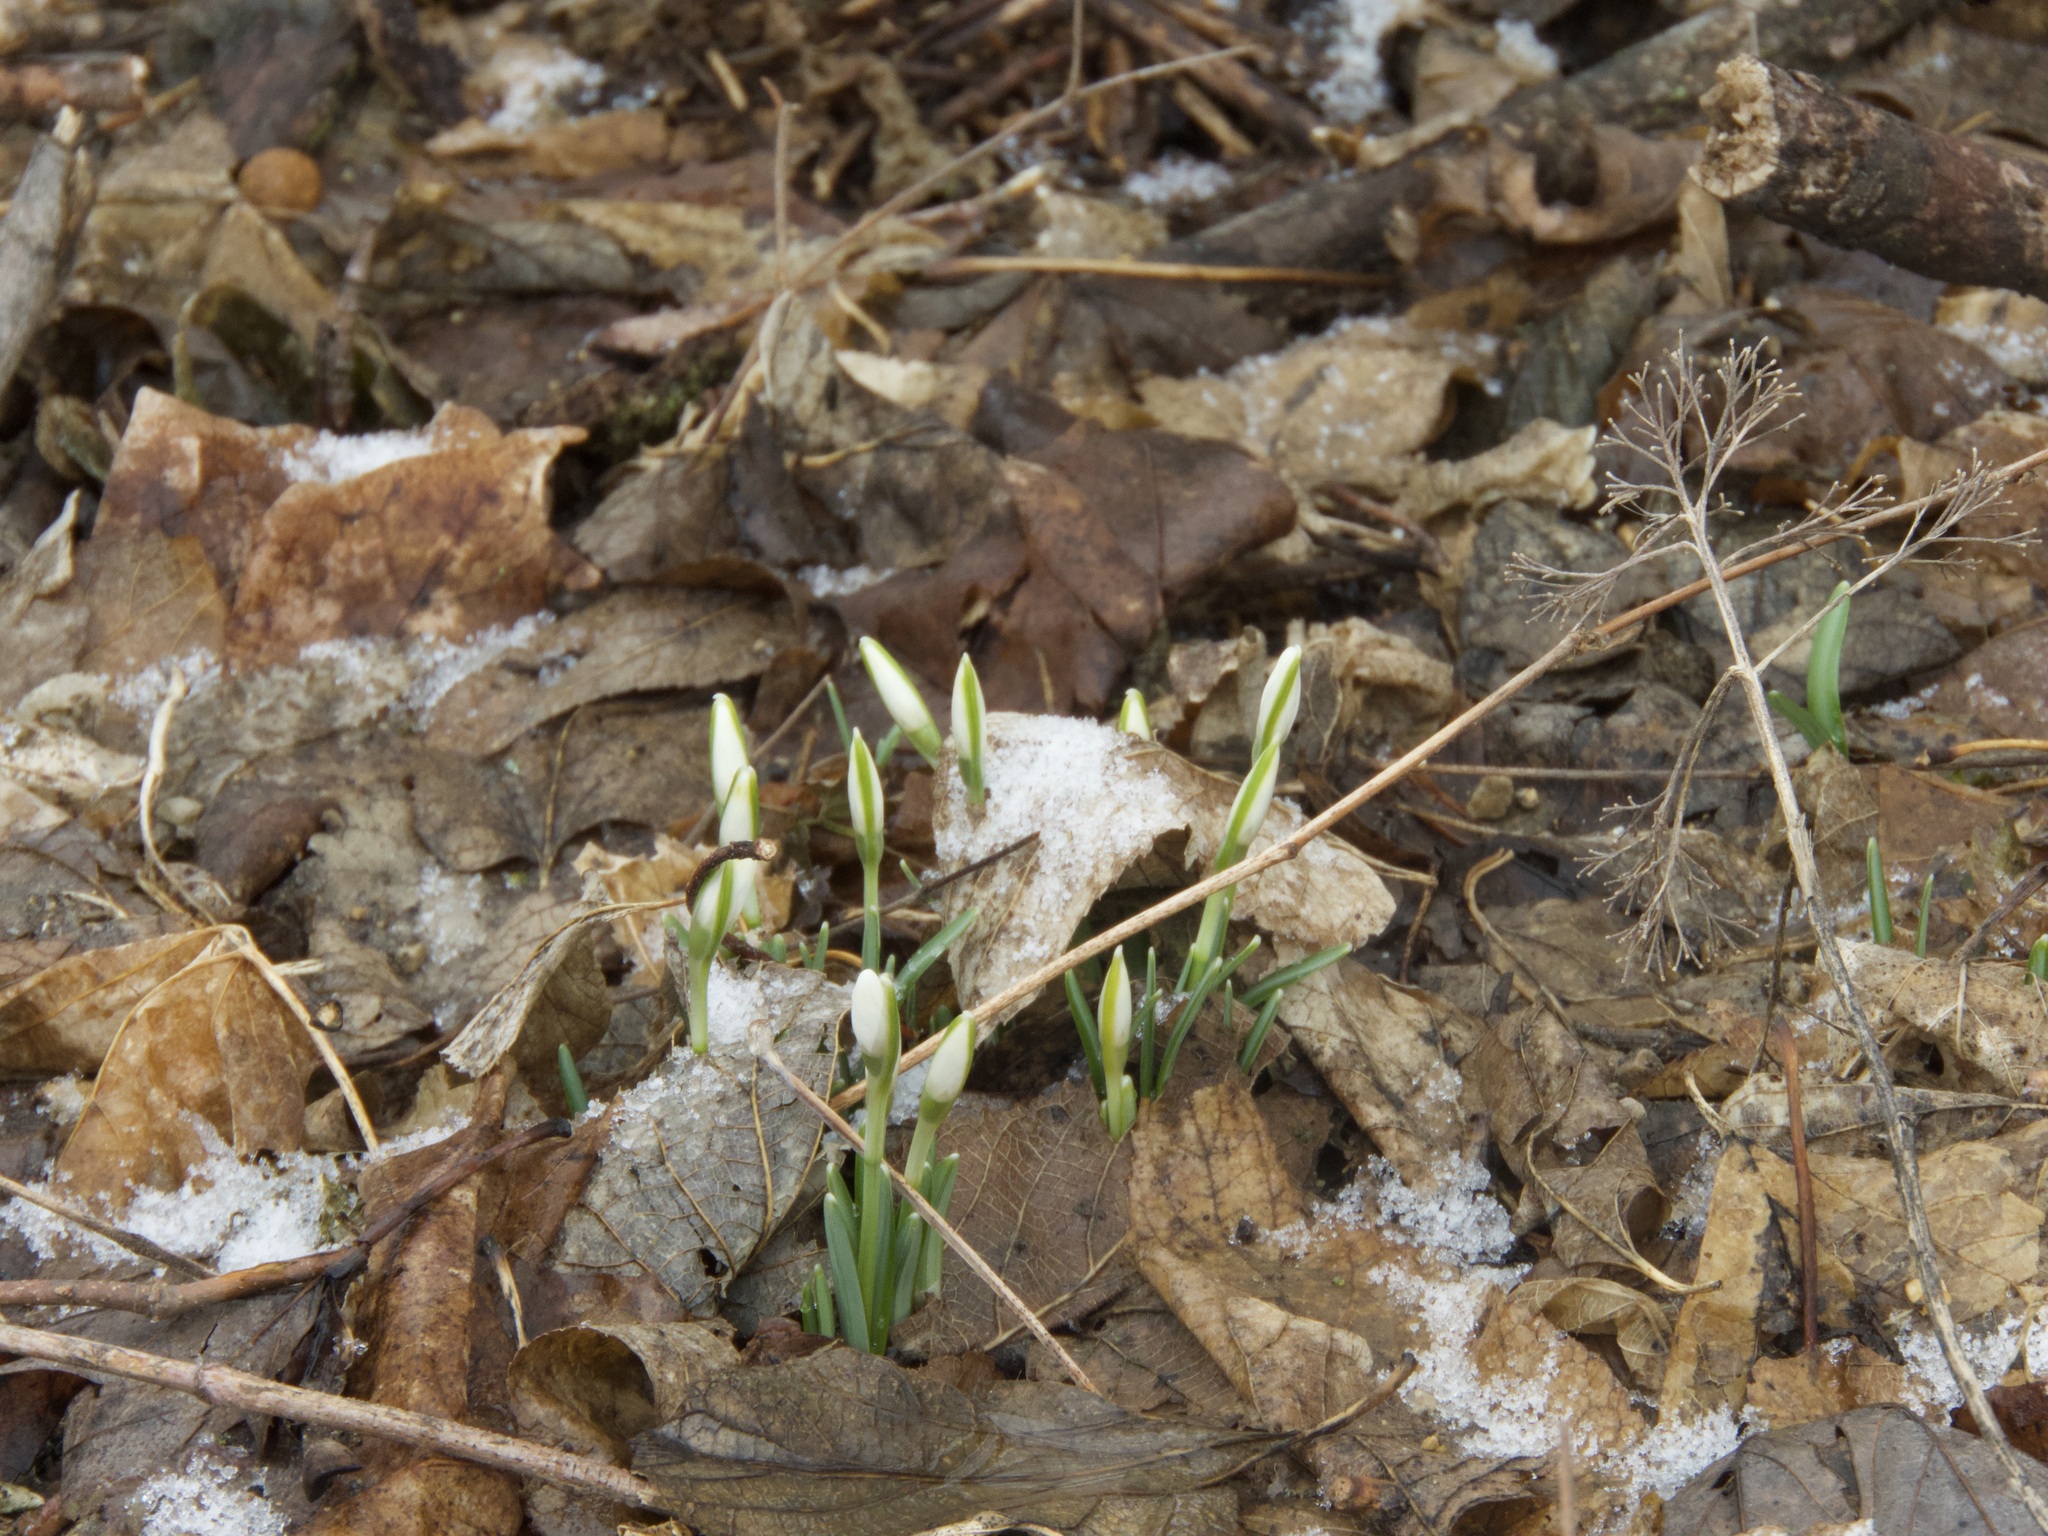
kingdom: Plantae
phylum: Tracheophyta
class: Liliopsida
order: Asparagales
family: Amaryllidaceae
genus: Galanthus
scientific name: Galanthus nivalis
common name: Snowdrop
